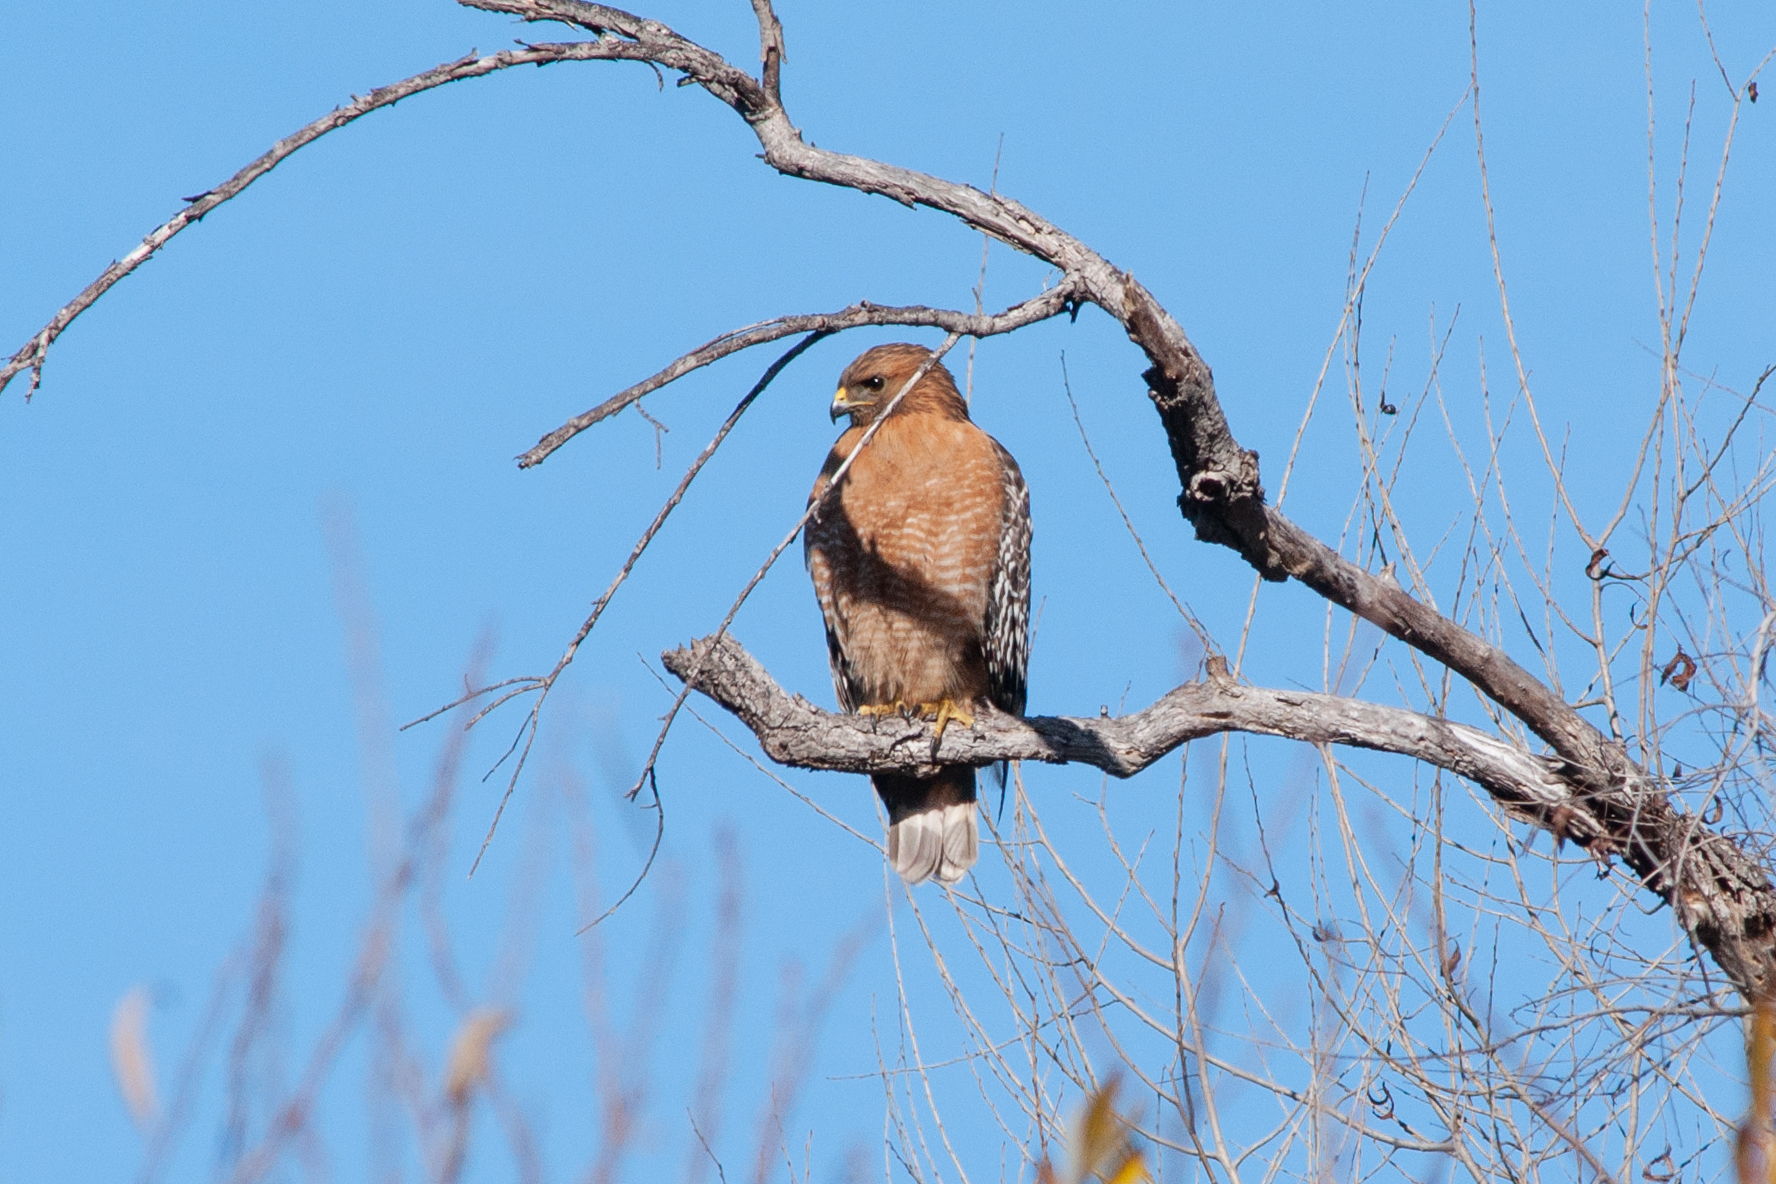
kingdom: Animalia
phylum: Chordata
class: Aves
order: Accipitriformes
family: Accipitridae
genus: Buteo
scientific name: Buteo lineatus
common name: Red-shouldered hawk
